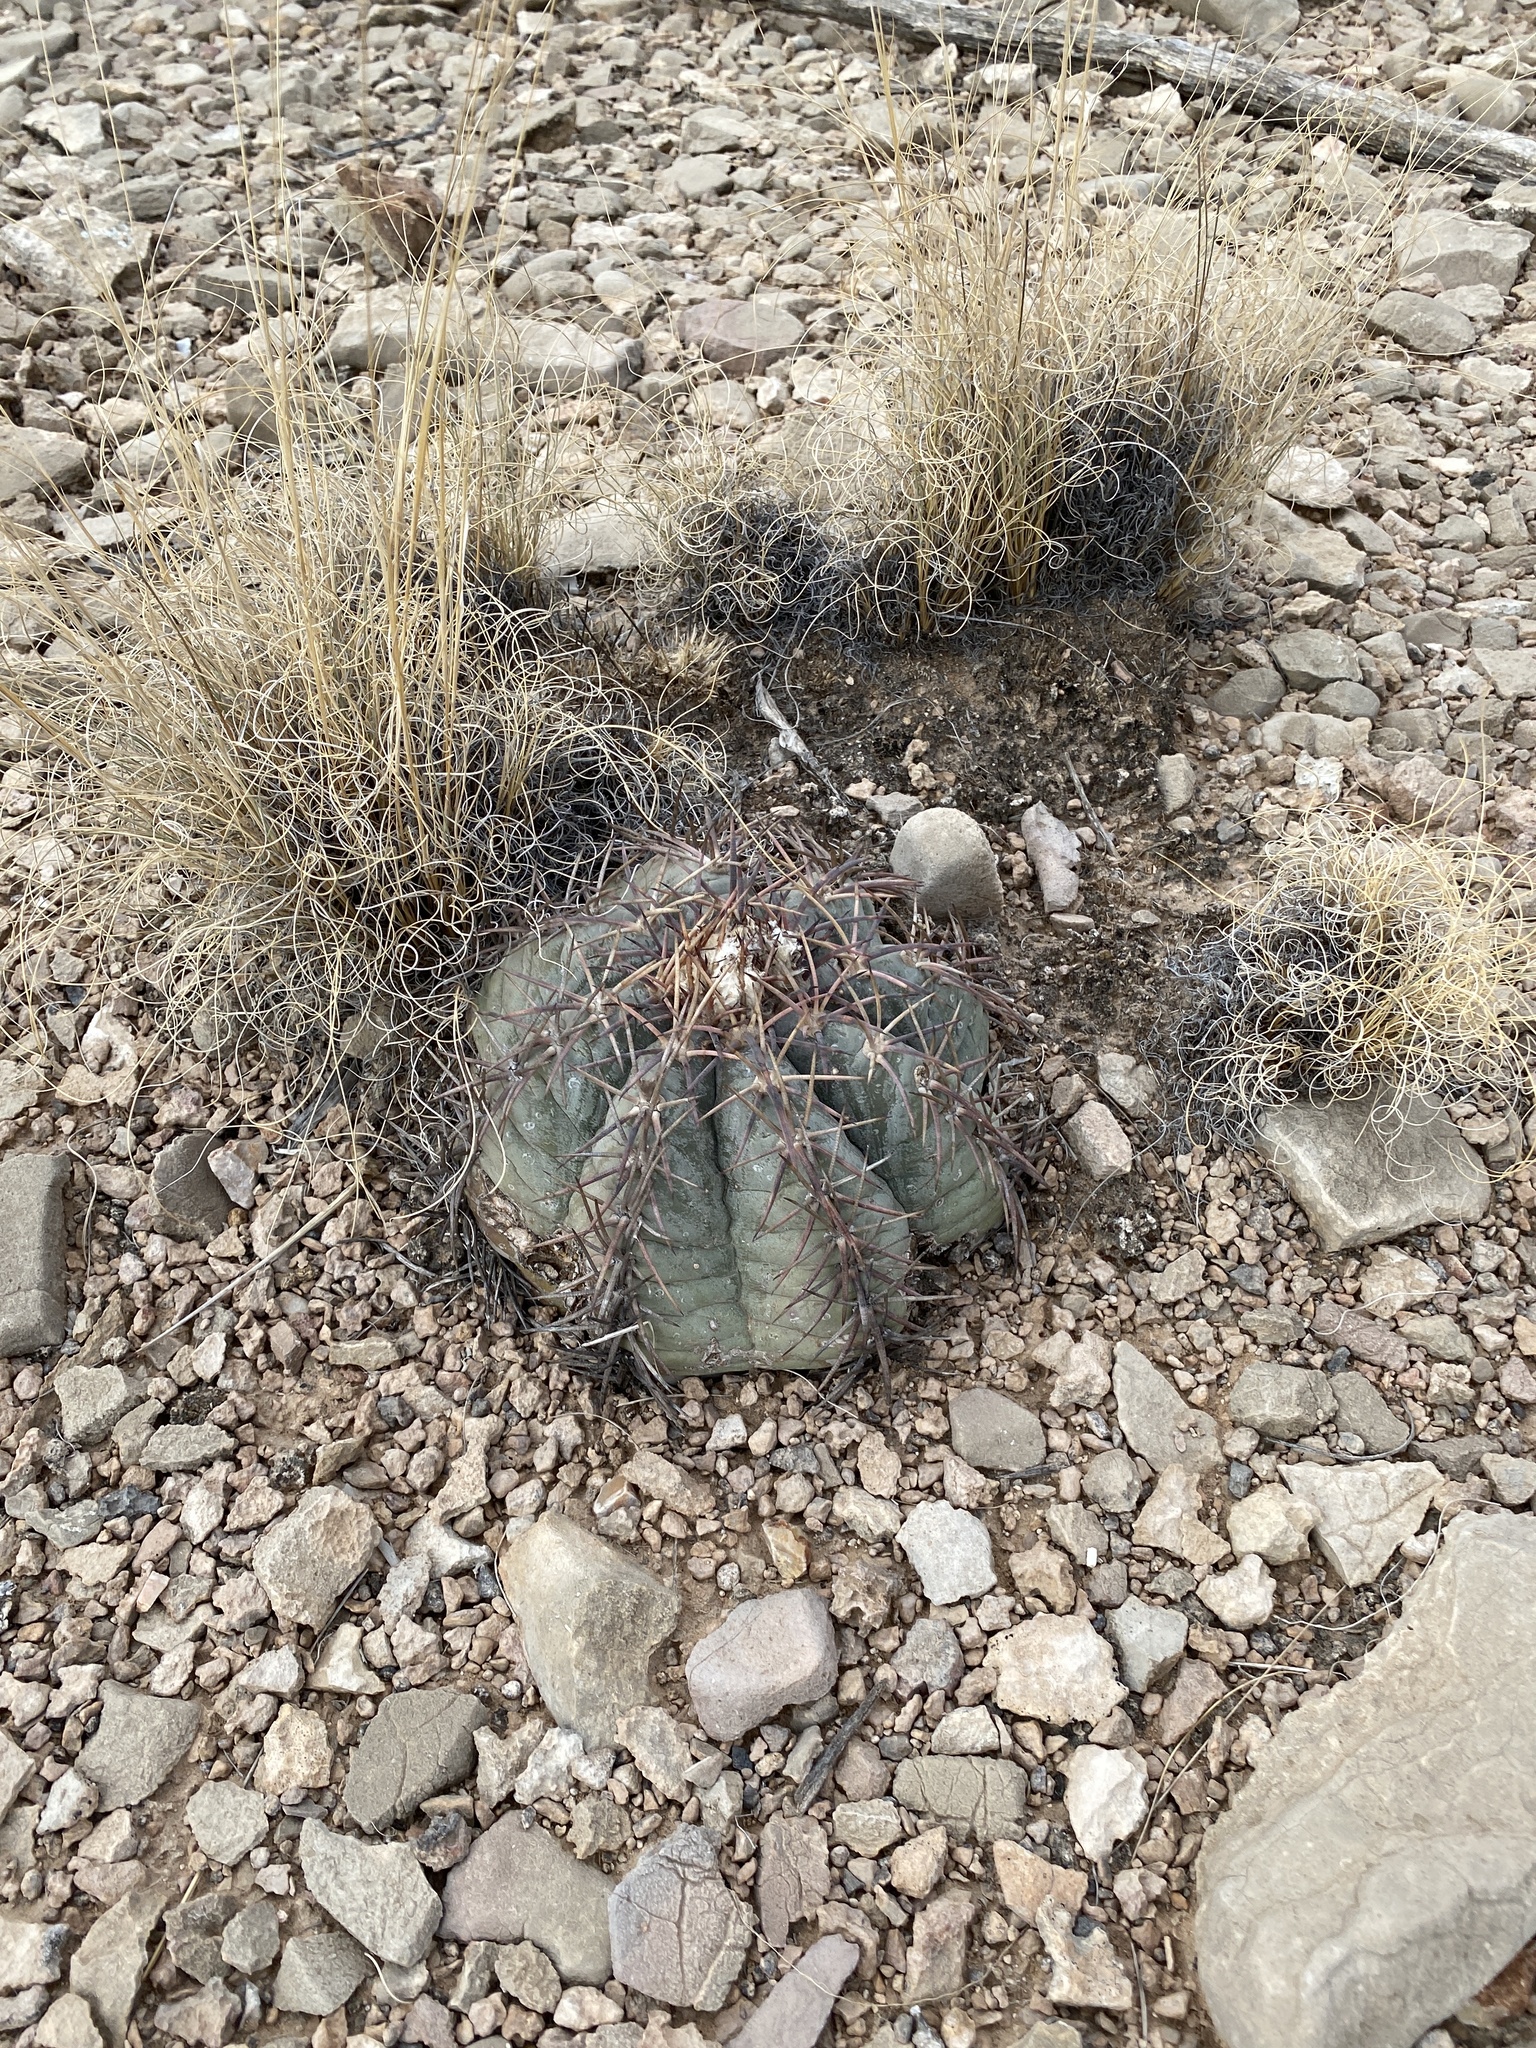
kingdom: Plantae
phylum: Tracheophyta
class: Magnoliopsida
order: Caryophyllales
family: Cactaceae
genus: Echinocactus
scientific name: Echinocactus horizonthalonius
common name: Devilshead
